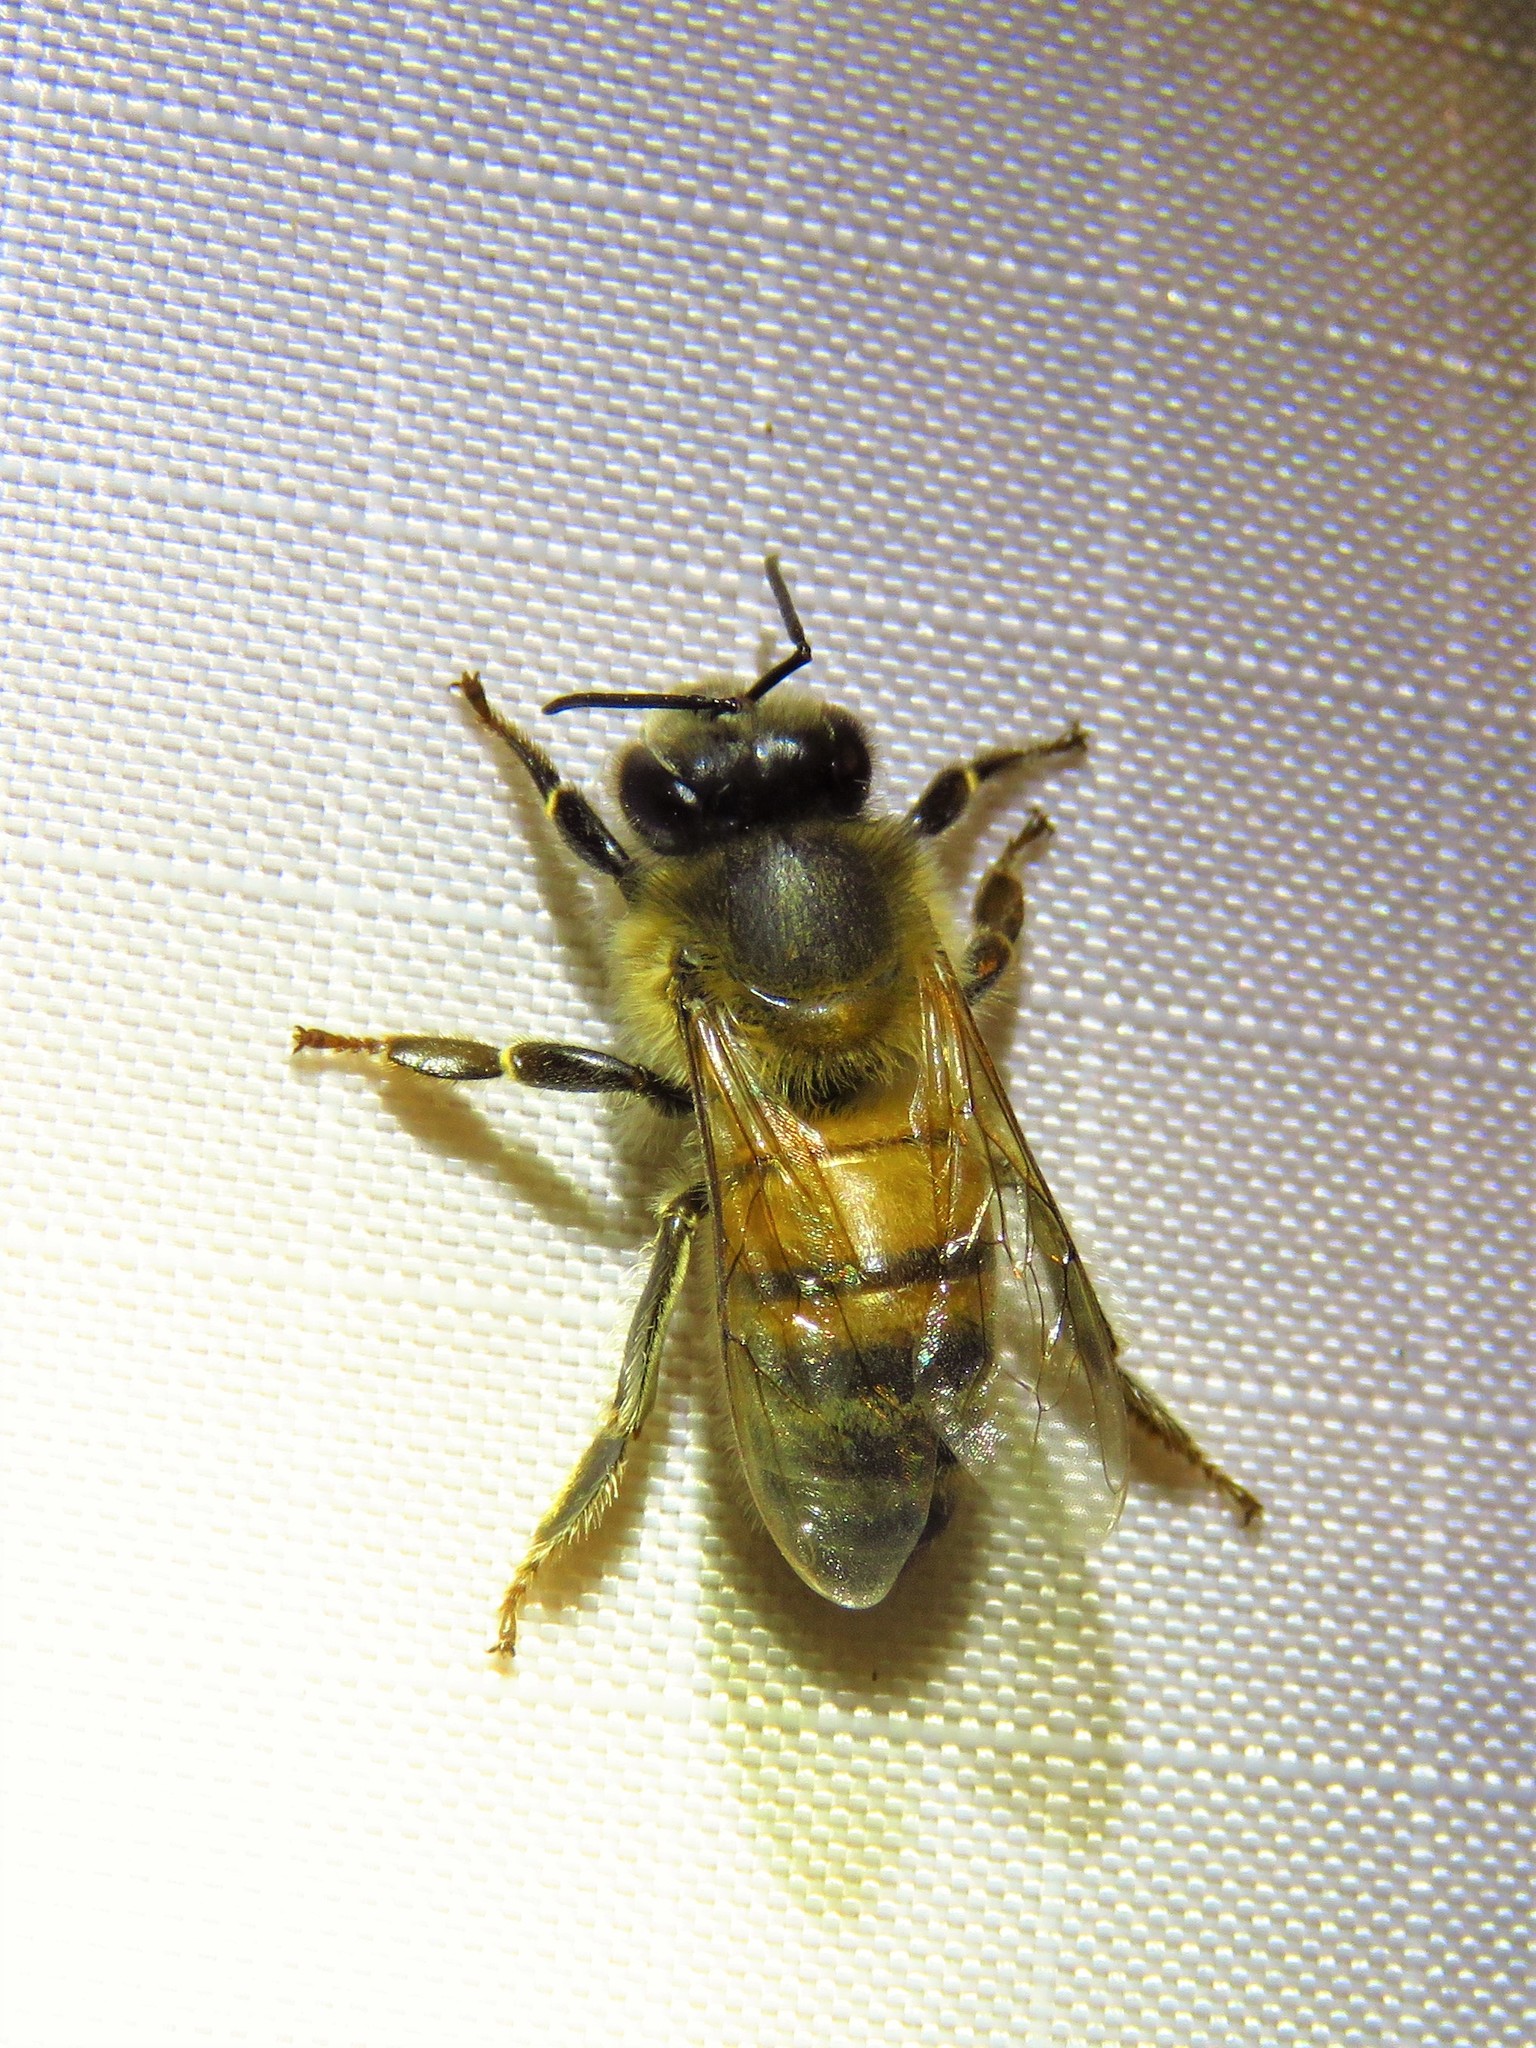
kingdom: Animalia
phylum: Arthropoda
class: Insecta
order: Hymenoptera
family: Apidae
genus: Apis
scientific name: Apis mellifera
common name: Honey bee
